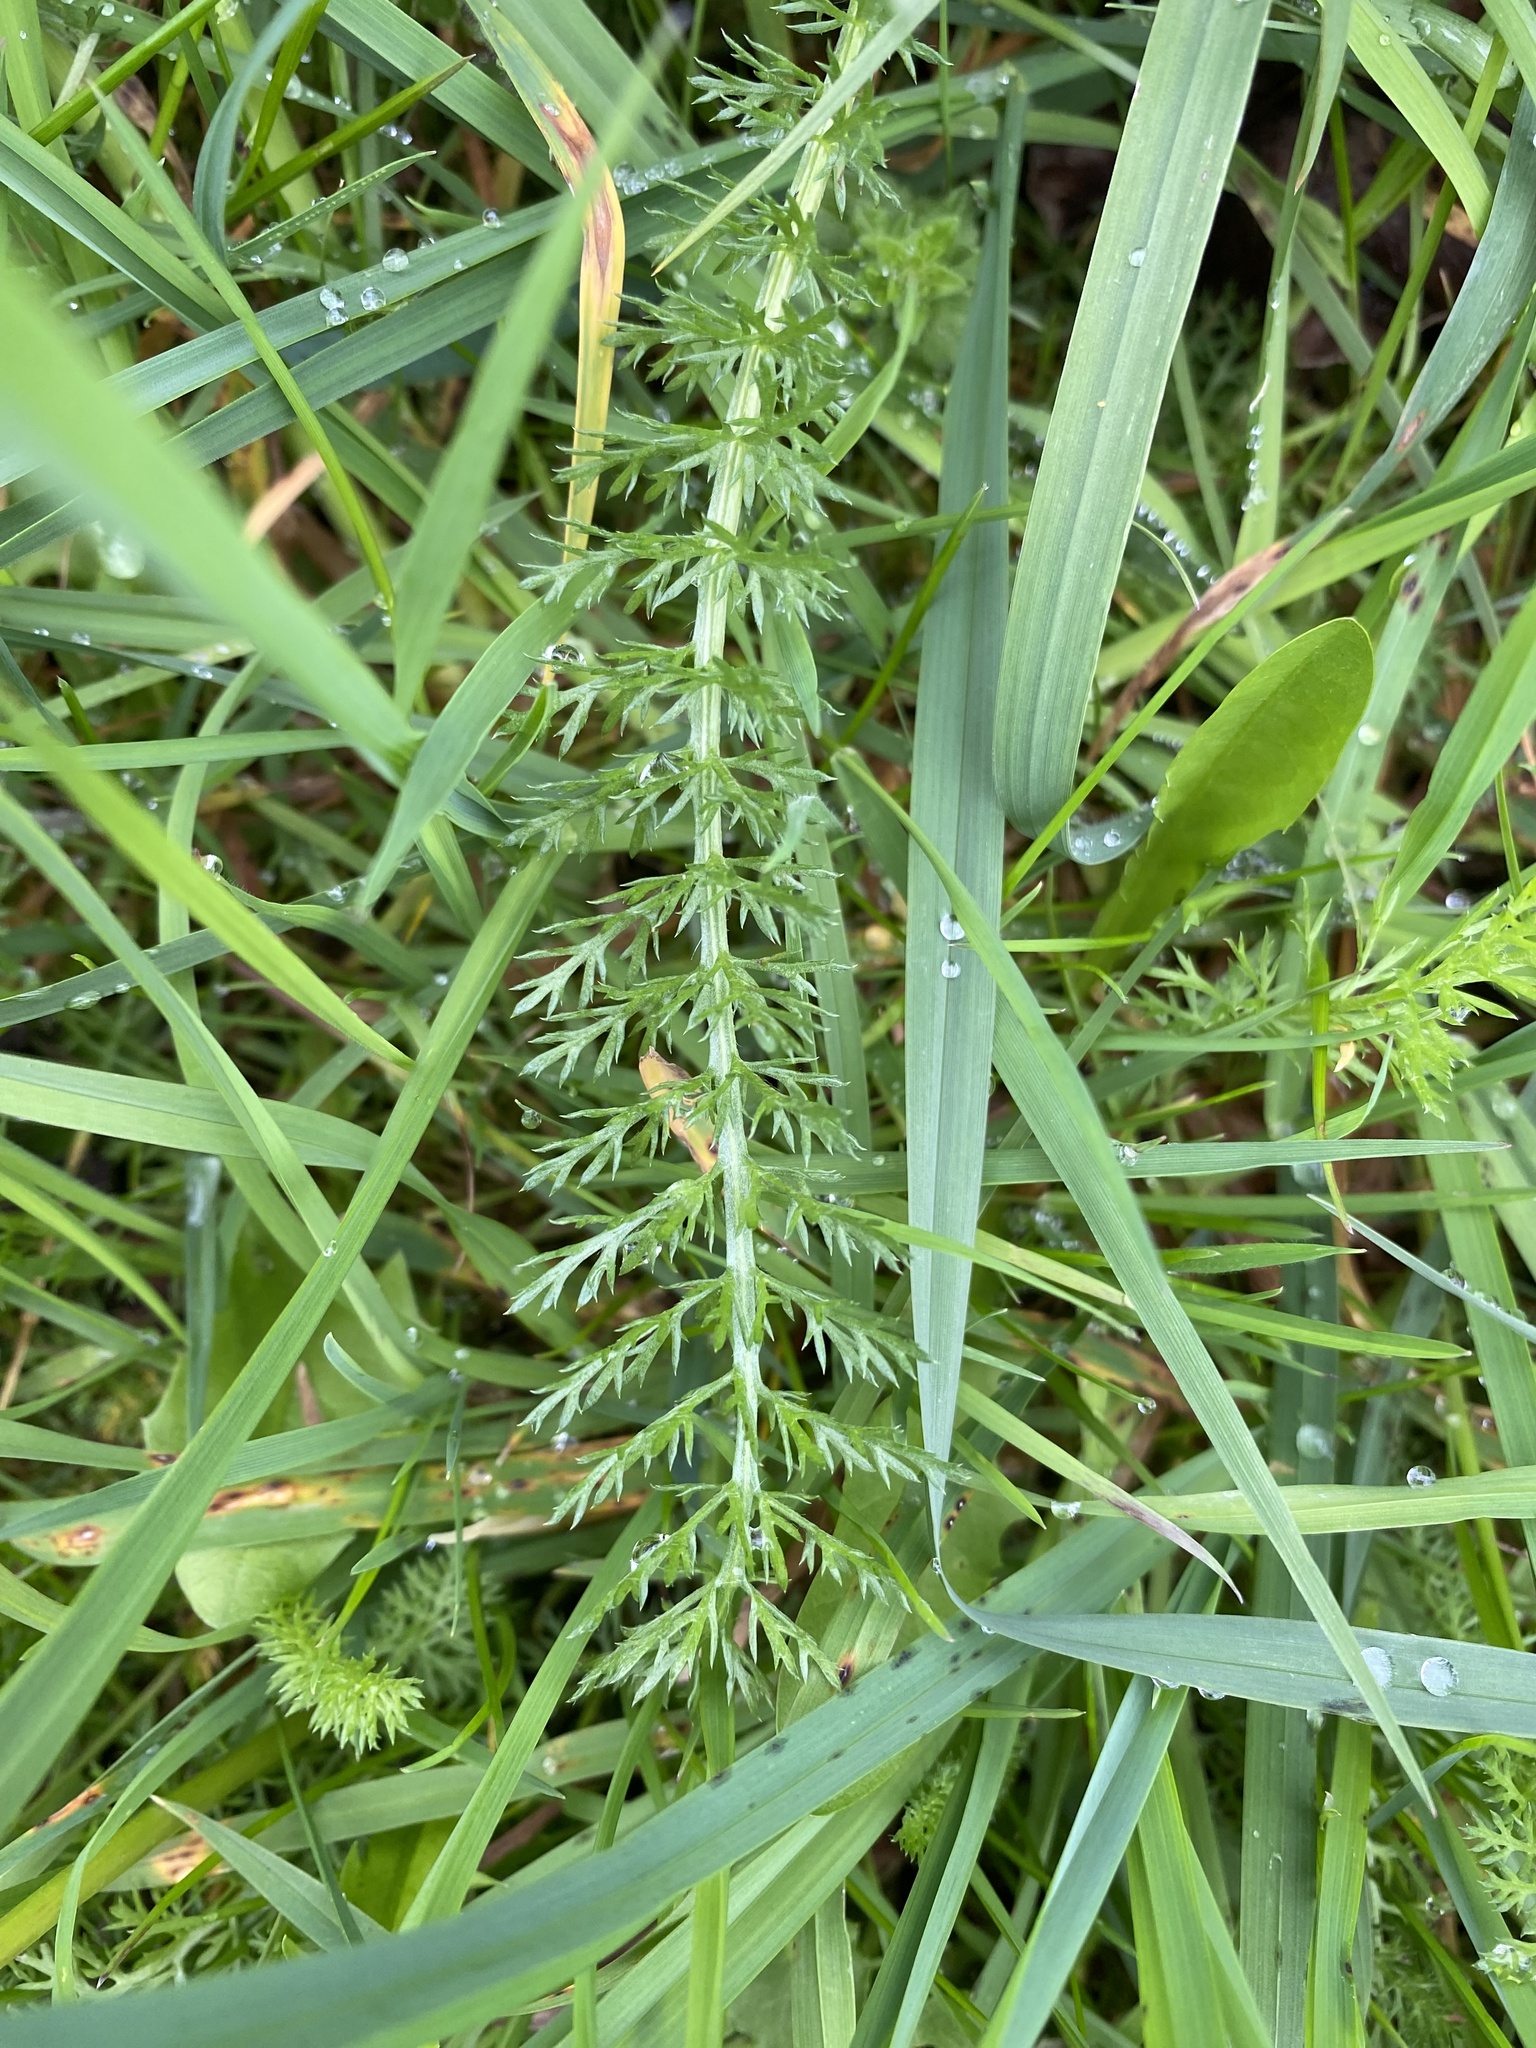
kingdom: Plantae
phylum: Tracheophyta
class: Magnoliopsida
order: Asterales
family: Asteraceae
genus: Achillea
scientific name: Achillea millefolium
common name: Yarrow
